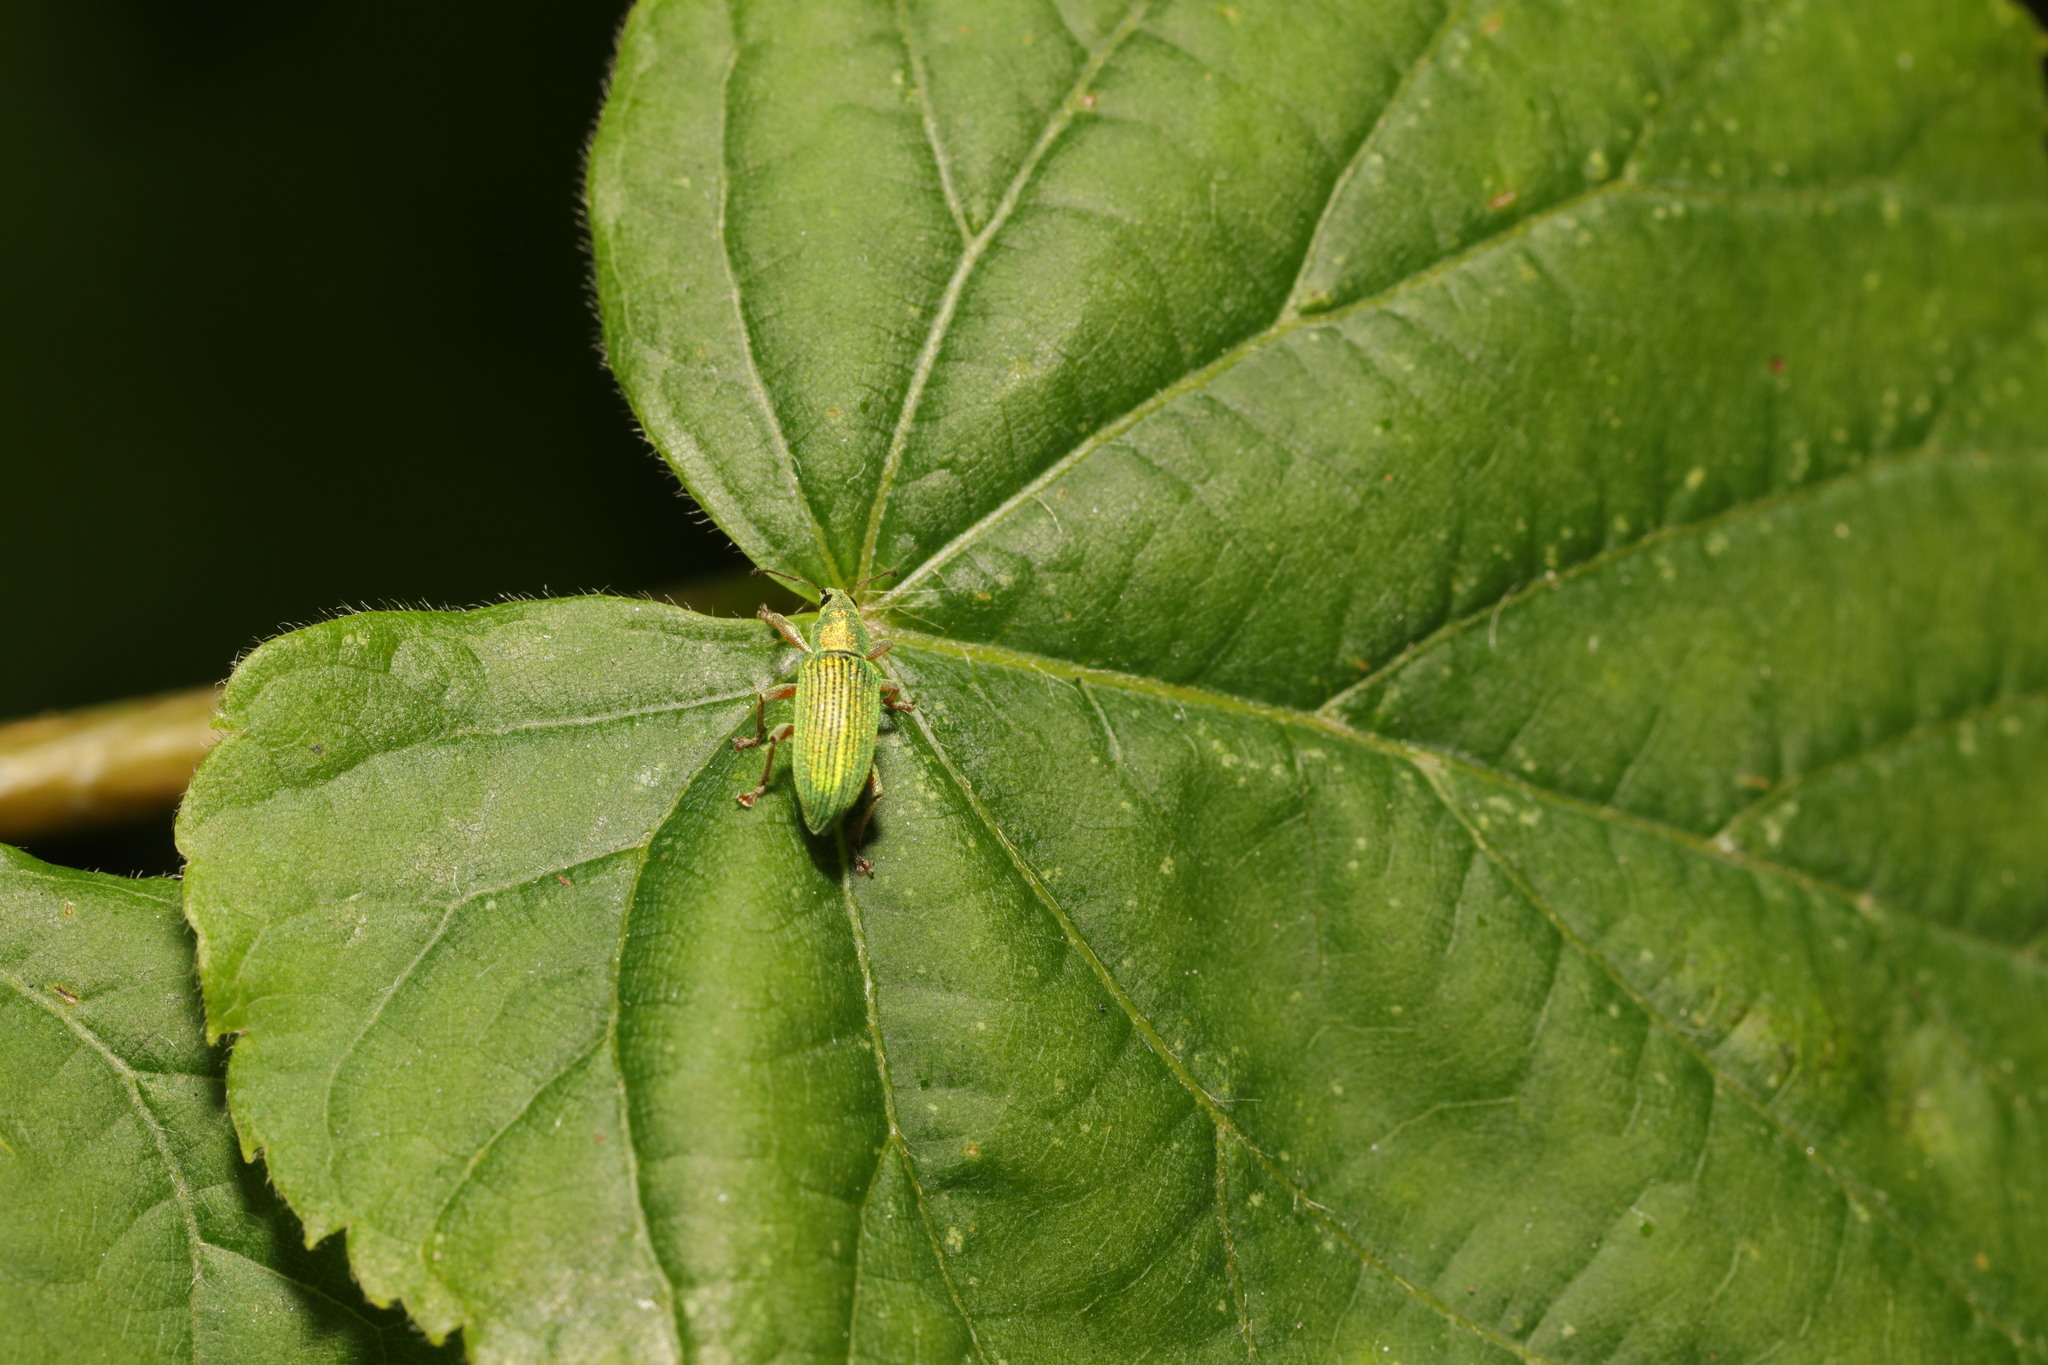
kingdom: Animalia
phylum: Arthropoda
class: Insecta
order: Coleoptera
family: Curculionidae
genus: Polydrusus
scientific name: Polydrusus formosus
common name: Weevil
